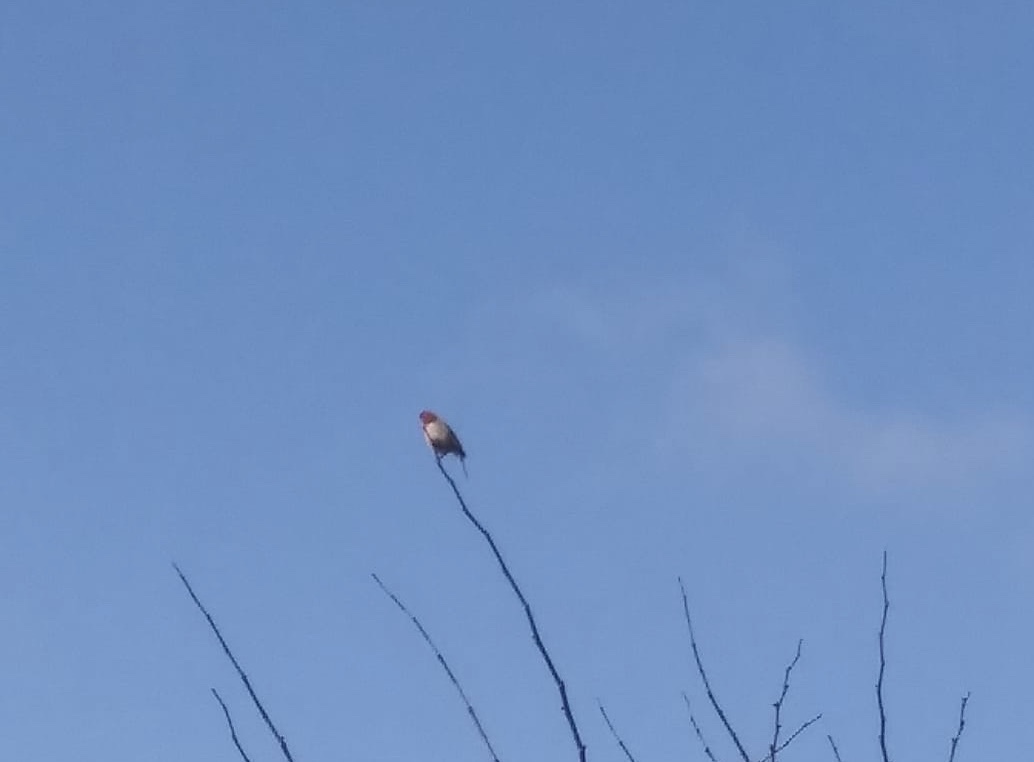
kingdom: Animalia
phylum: Chordata
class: Aves
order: Piciformes
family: Picidae
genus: Melanerpes
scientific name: Melanerpes erythrocephalus
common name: Red-headed woodpecker
